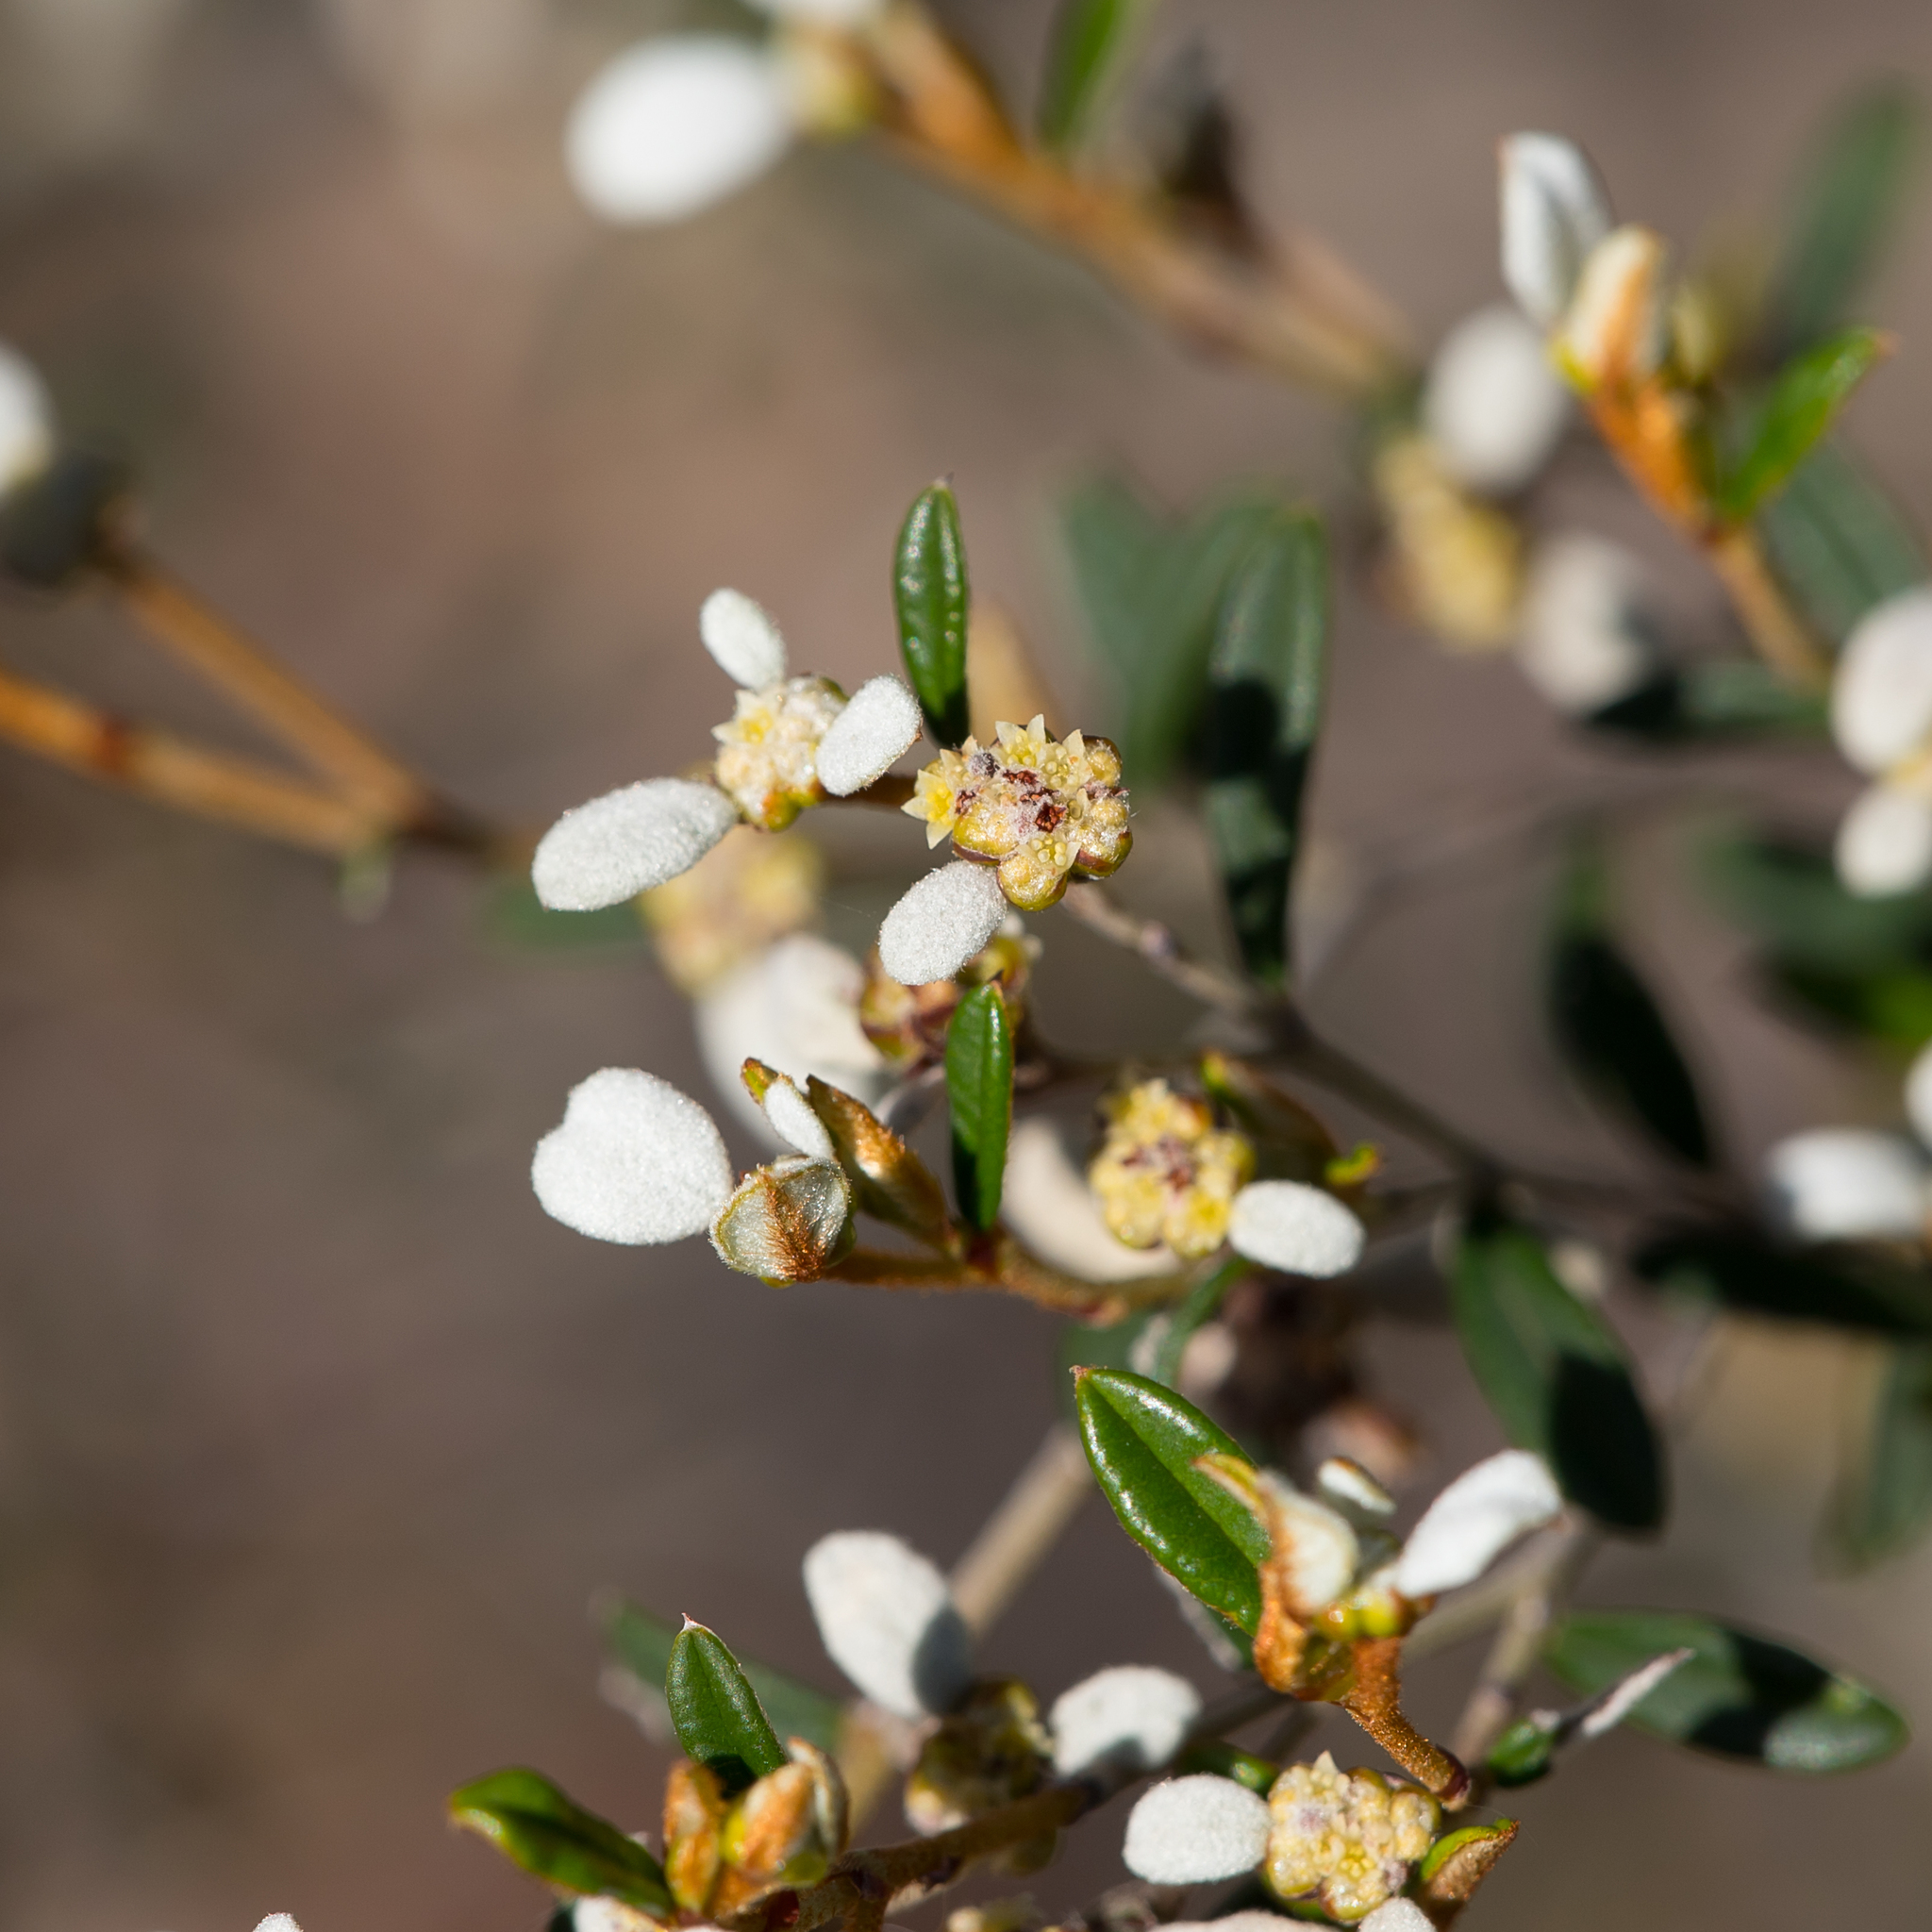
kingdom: Plantae
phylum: Tracheophyta
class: Magnoliopsida
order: Rosales
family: Rhamnaceae
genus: Spyridium
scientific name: Spyridium vexilliferum
